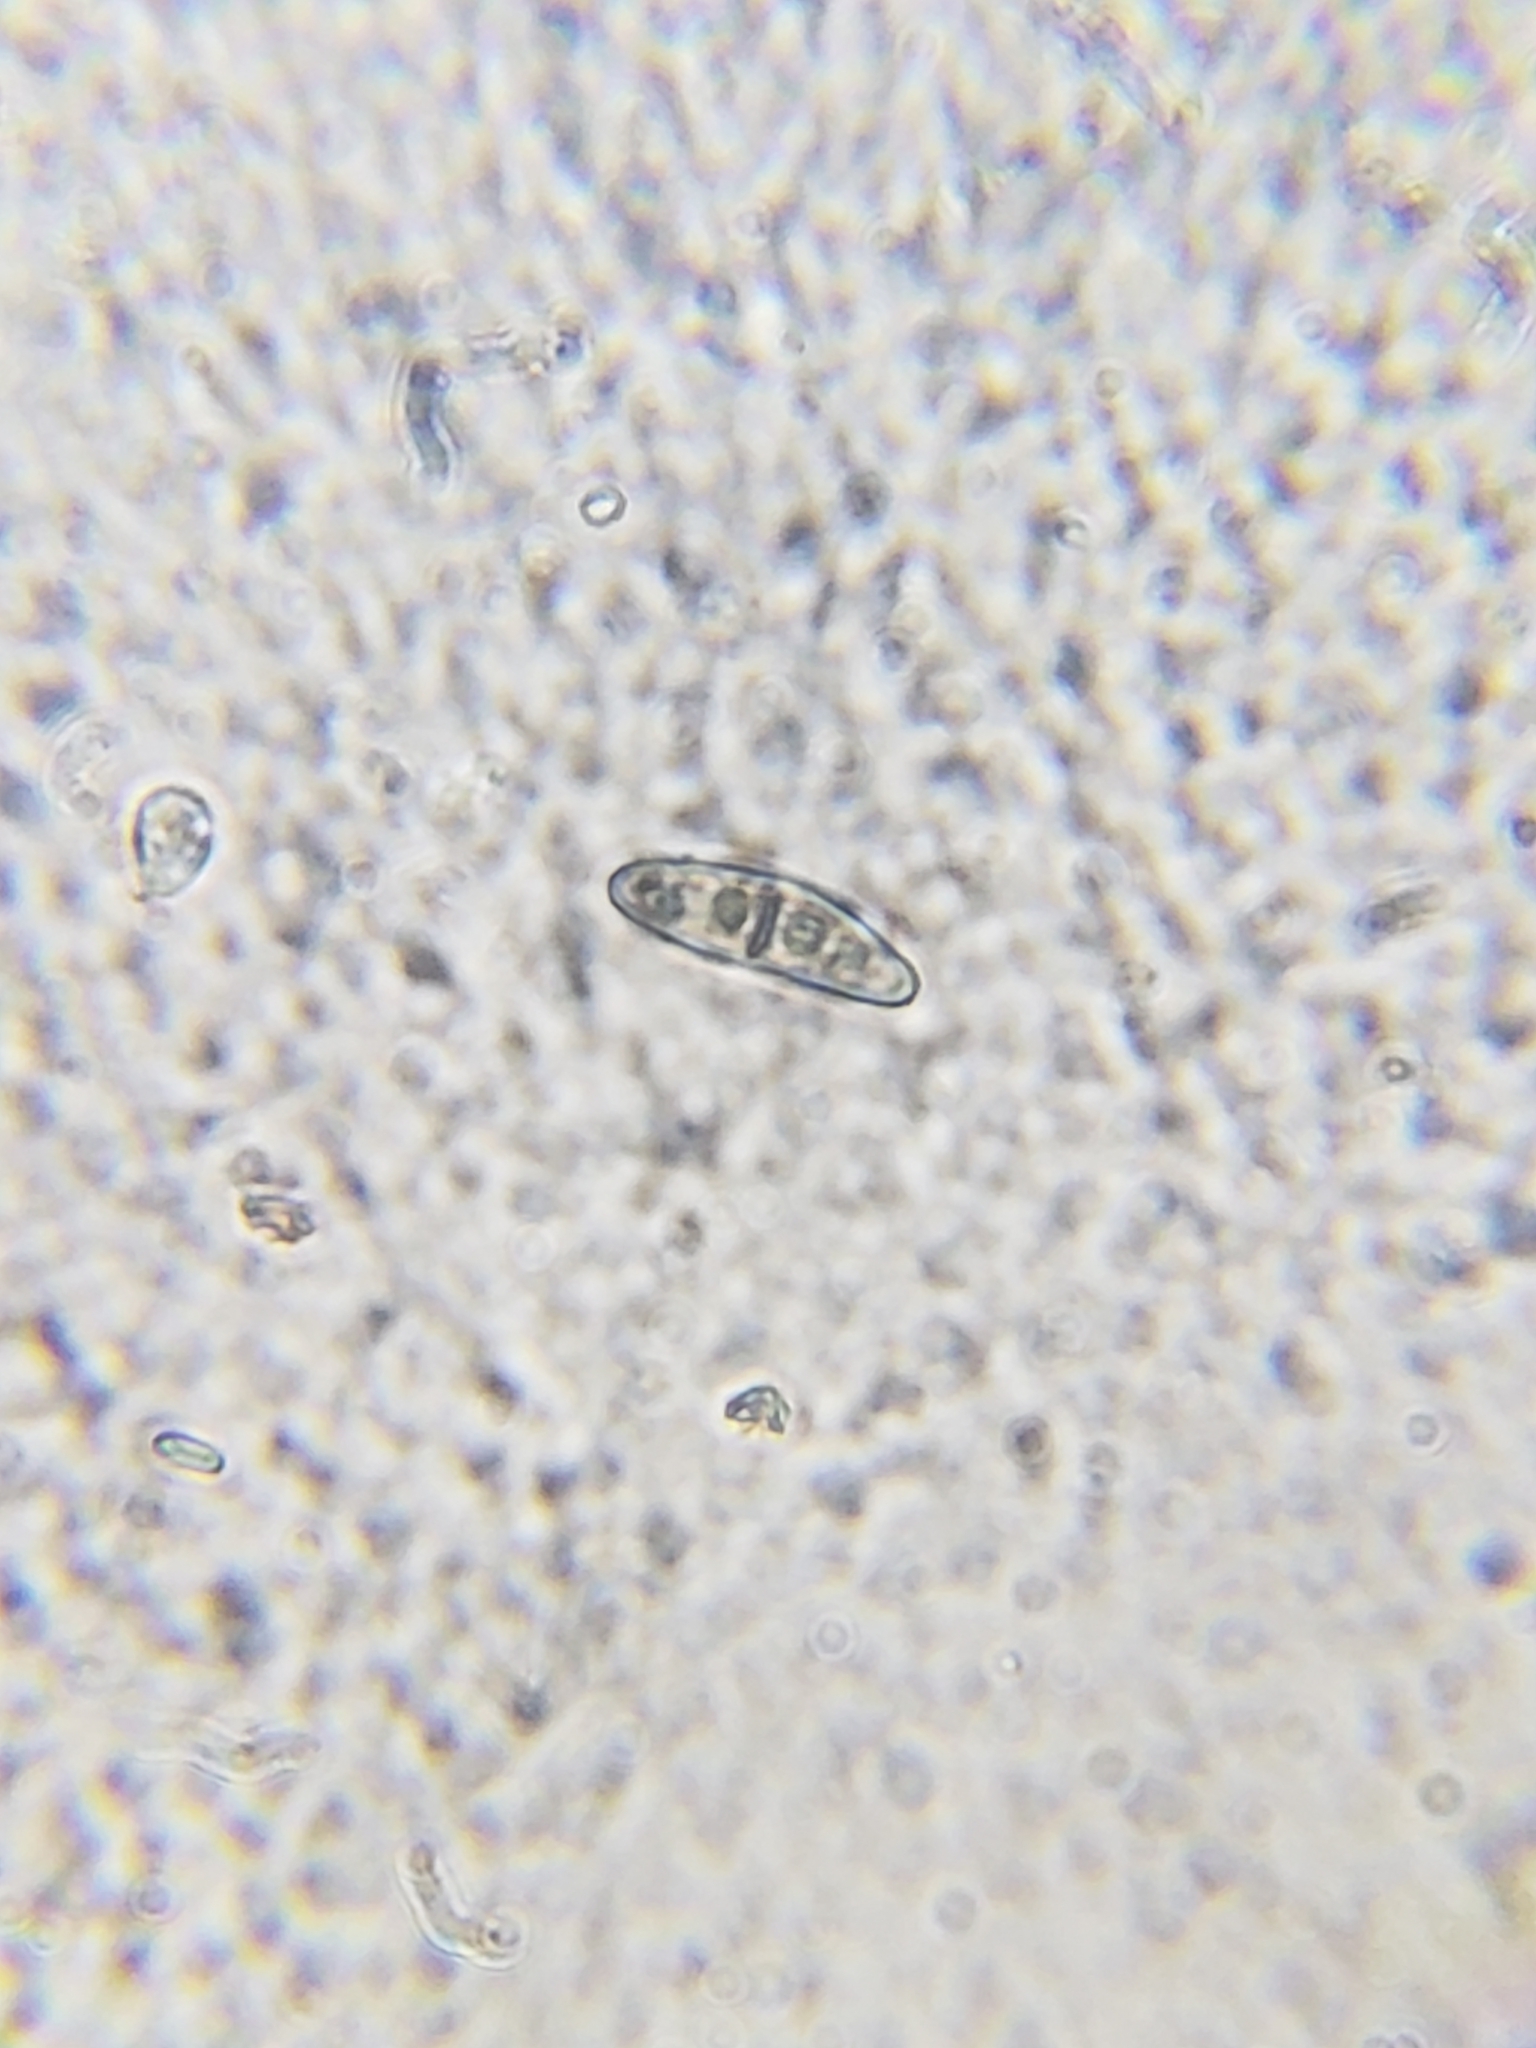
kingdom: Fungi
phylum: Ascomycota
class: Eurotiomycetes
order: Sclerococcales
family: Sclerococcaceae
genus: Sclerococcum
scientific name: Sclerococcum stygium
